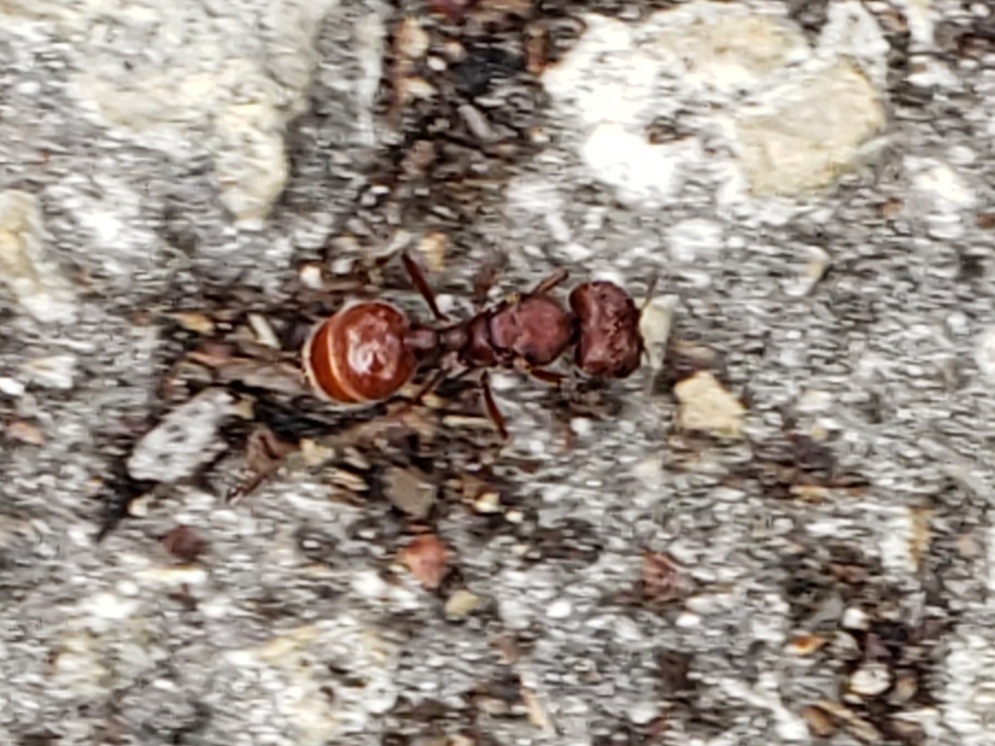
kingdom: Animalia
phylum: Arthropoda
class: Insecta
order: Hymenoptera
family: Formicidae
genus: Pogonomyrmex
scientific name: Pogonomyrmex badius
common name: Florida harvester ant
